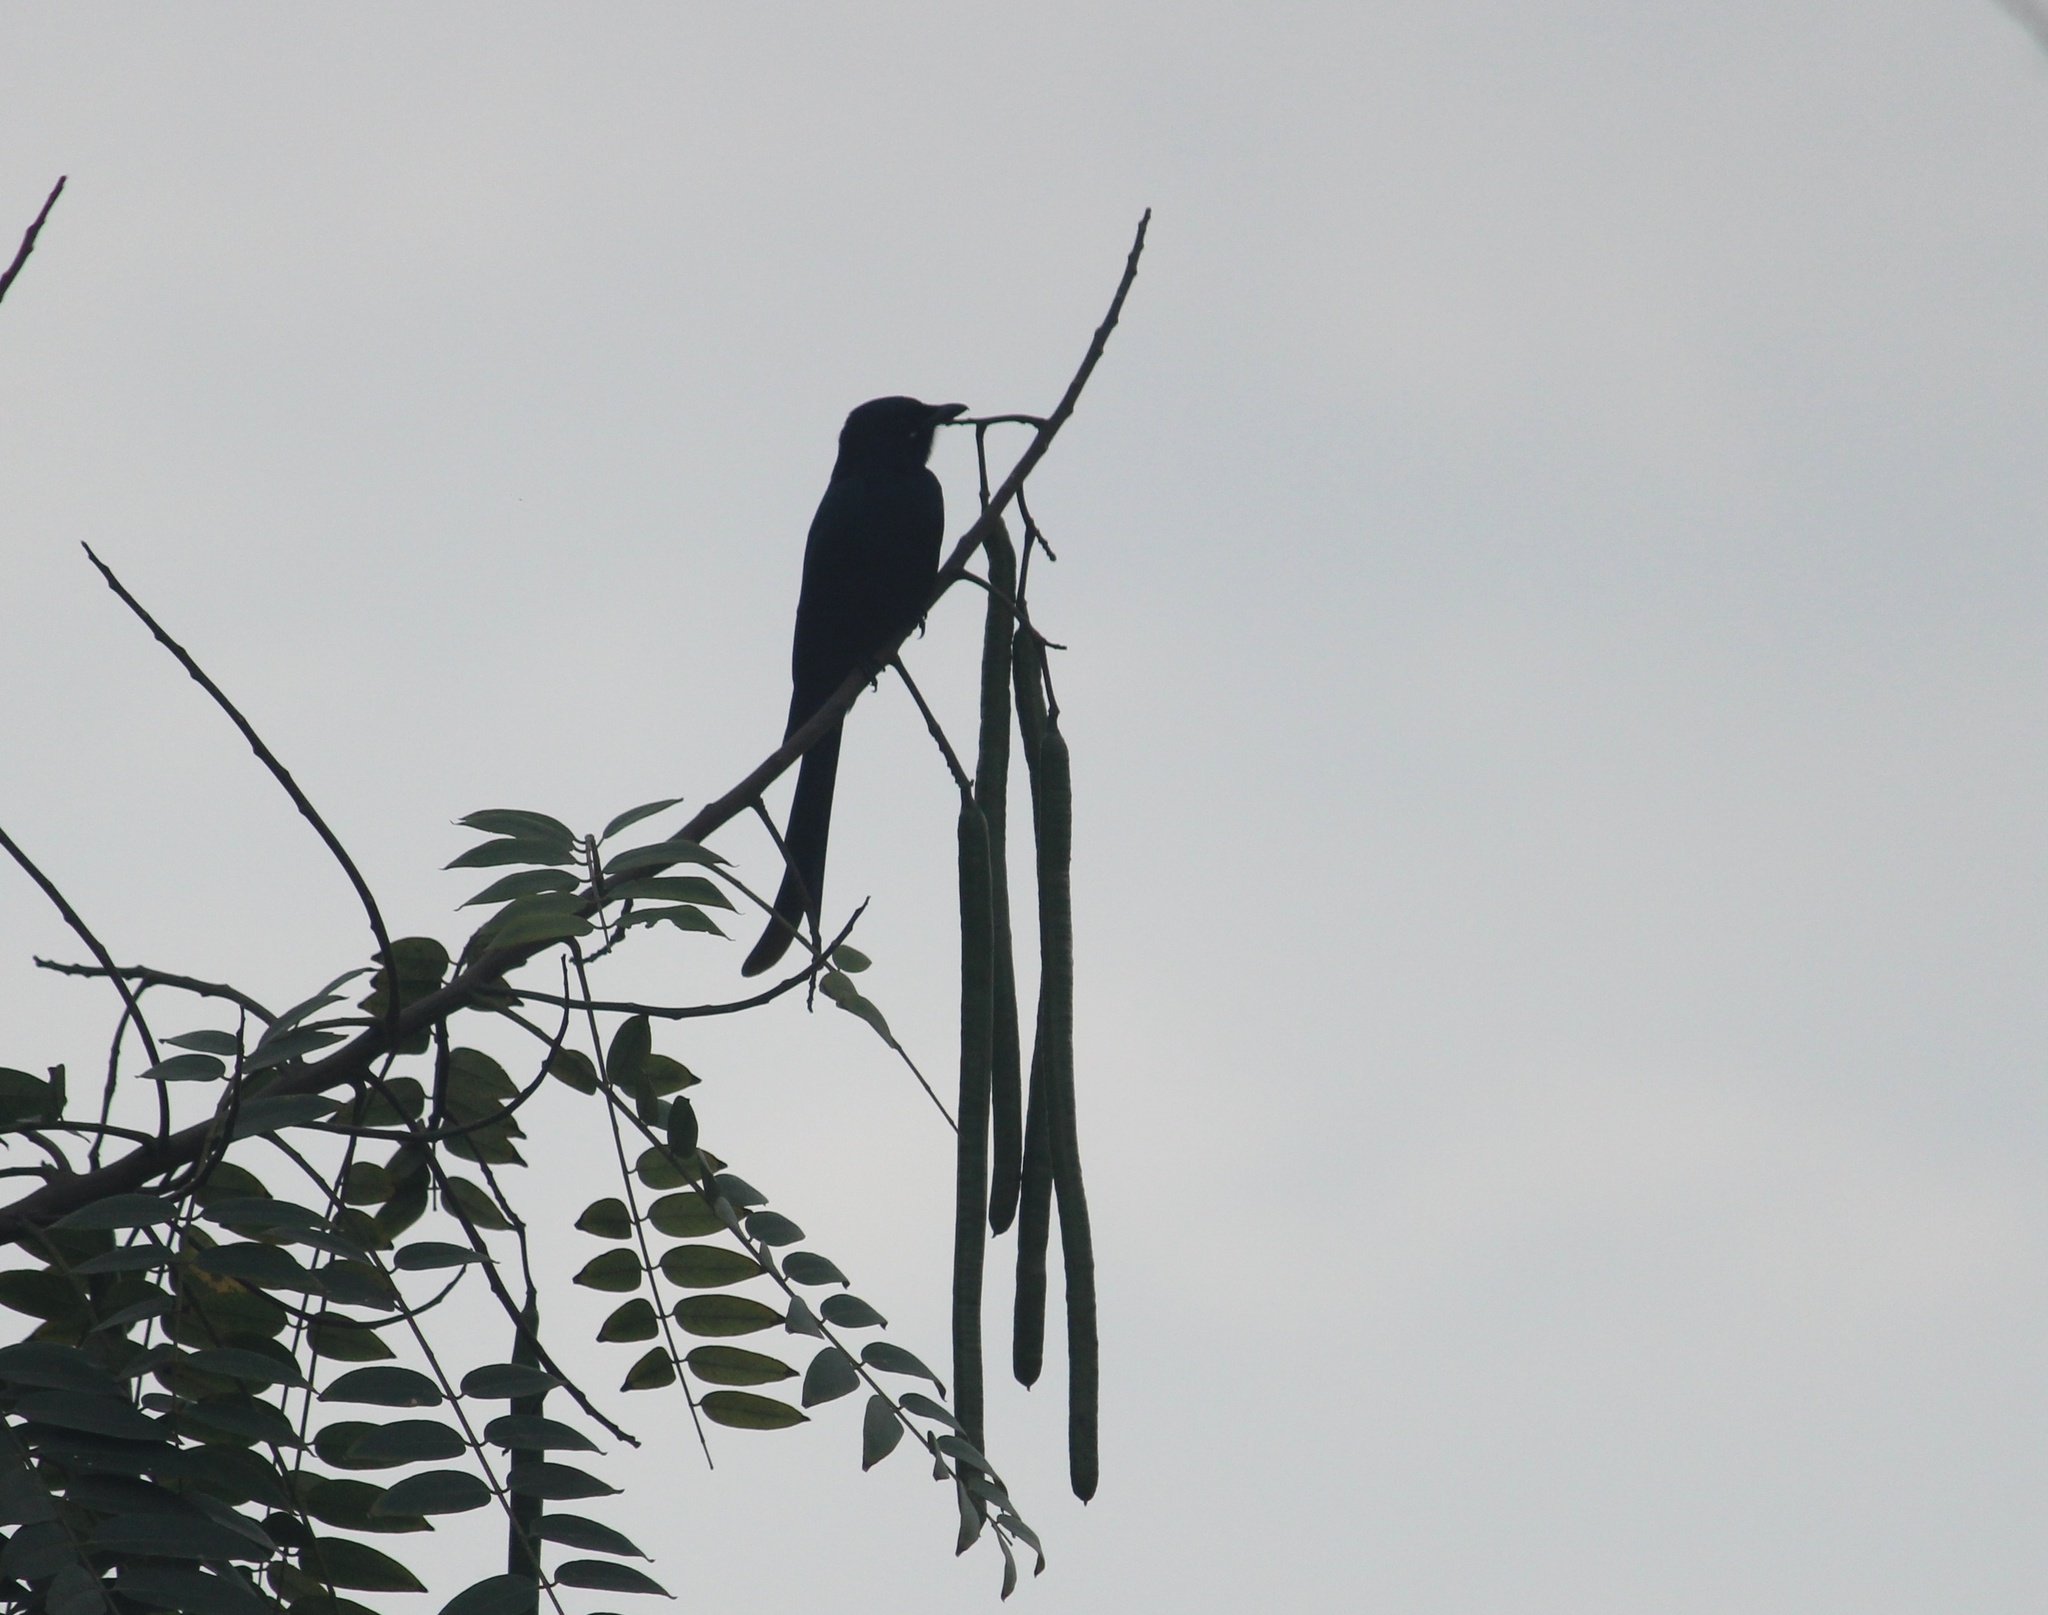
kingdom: Animalia
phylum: Chordata
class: Aves
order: Passeriformes
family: Dicruridae
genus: Dicrurus
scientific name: Dicrurus macrocercus
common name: Black drongo
